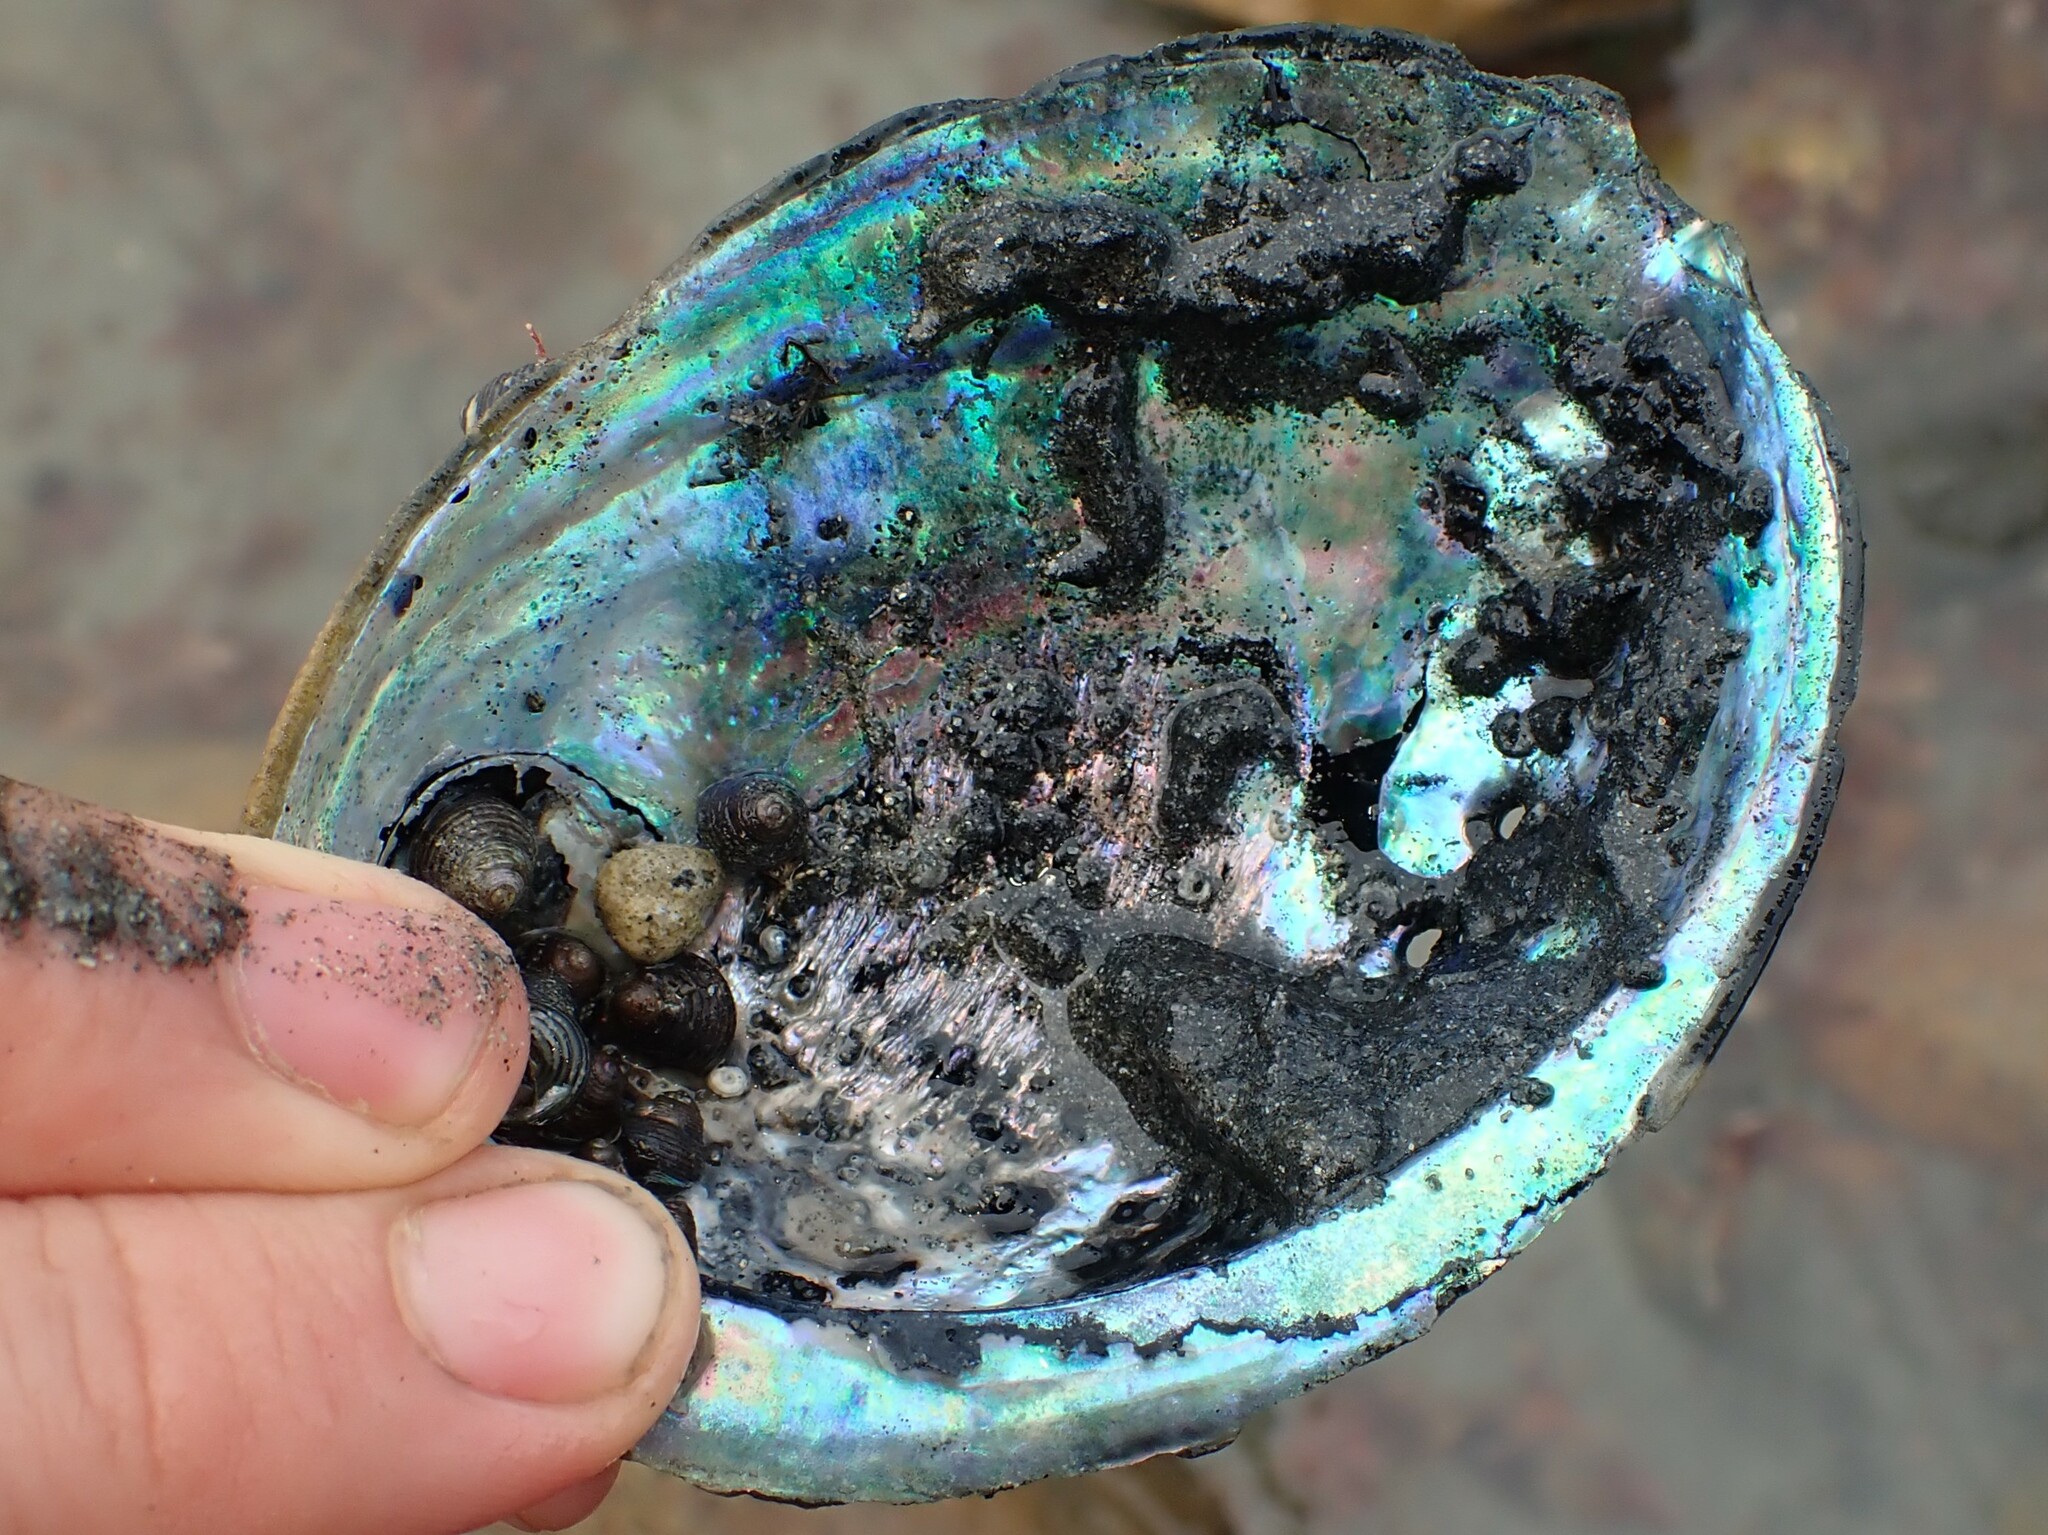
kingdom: Animalia
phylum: Mollusca
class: Gastropoda
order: Trochida
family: Trochidae
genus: Micrelenchus
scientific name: Micrelenchus tenebrosus
